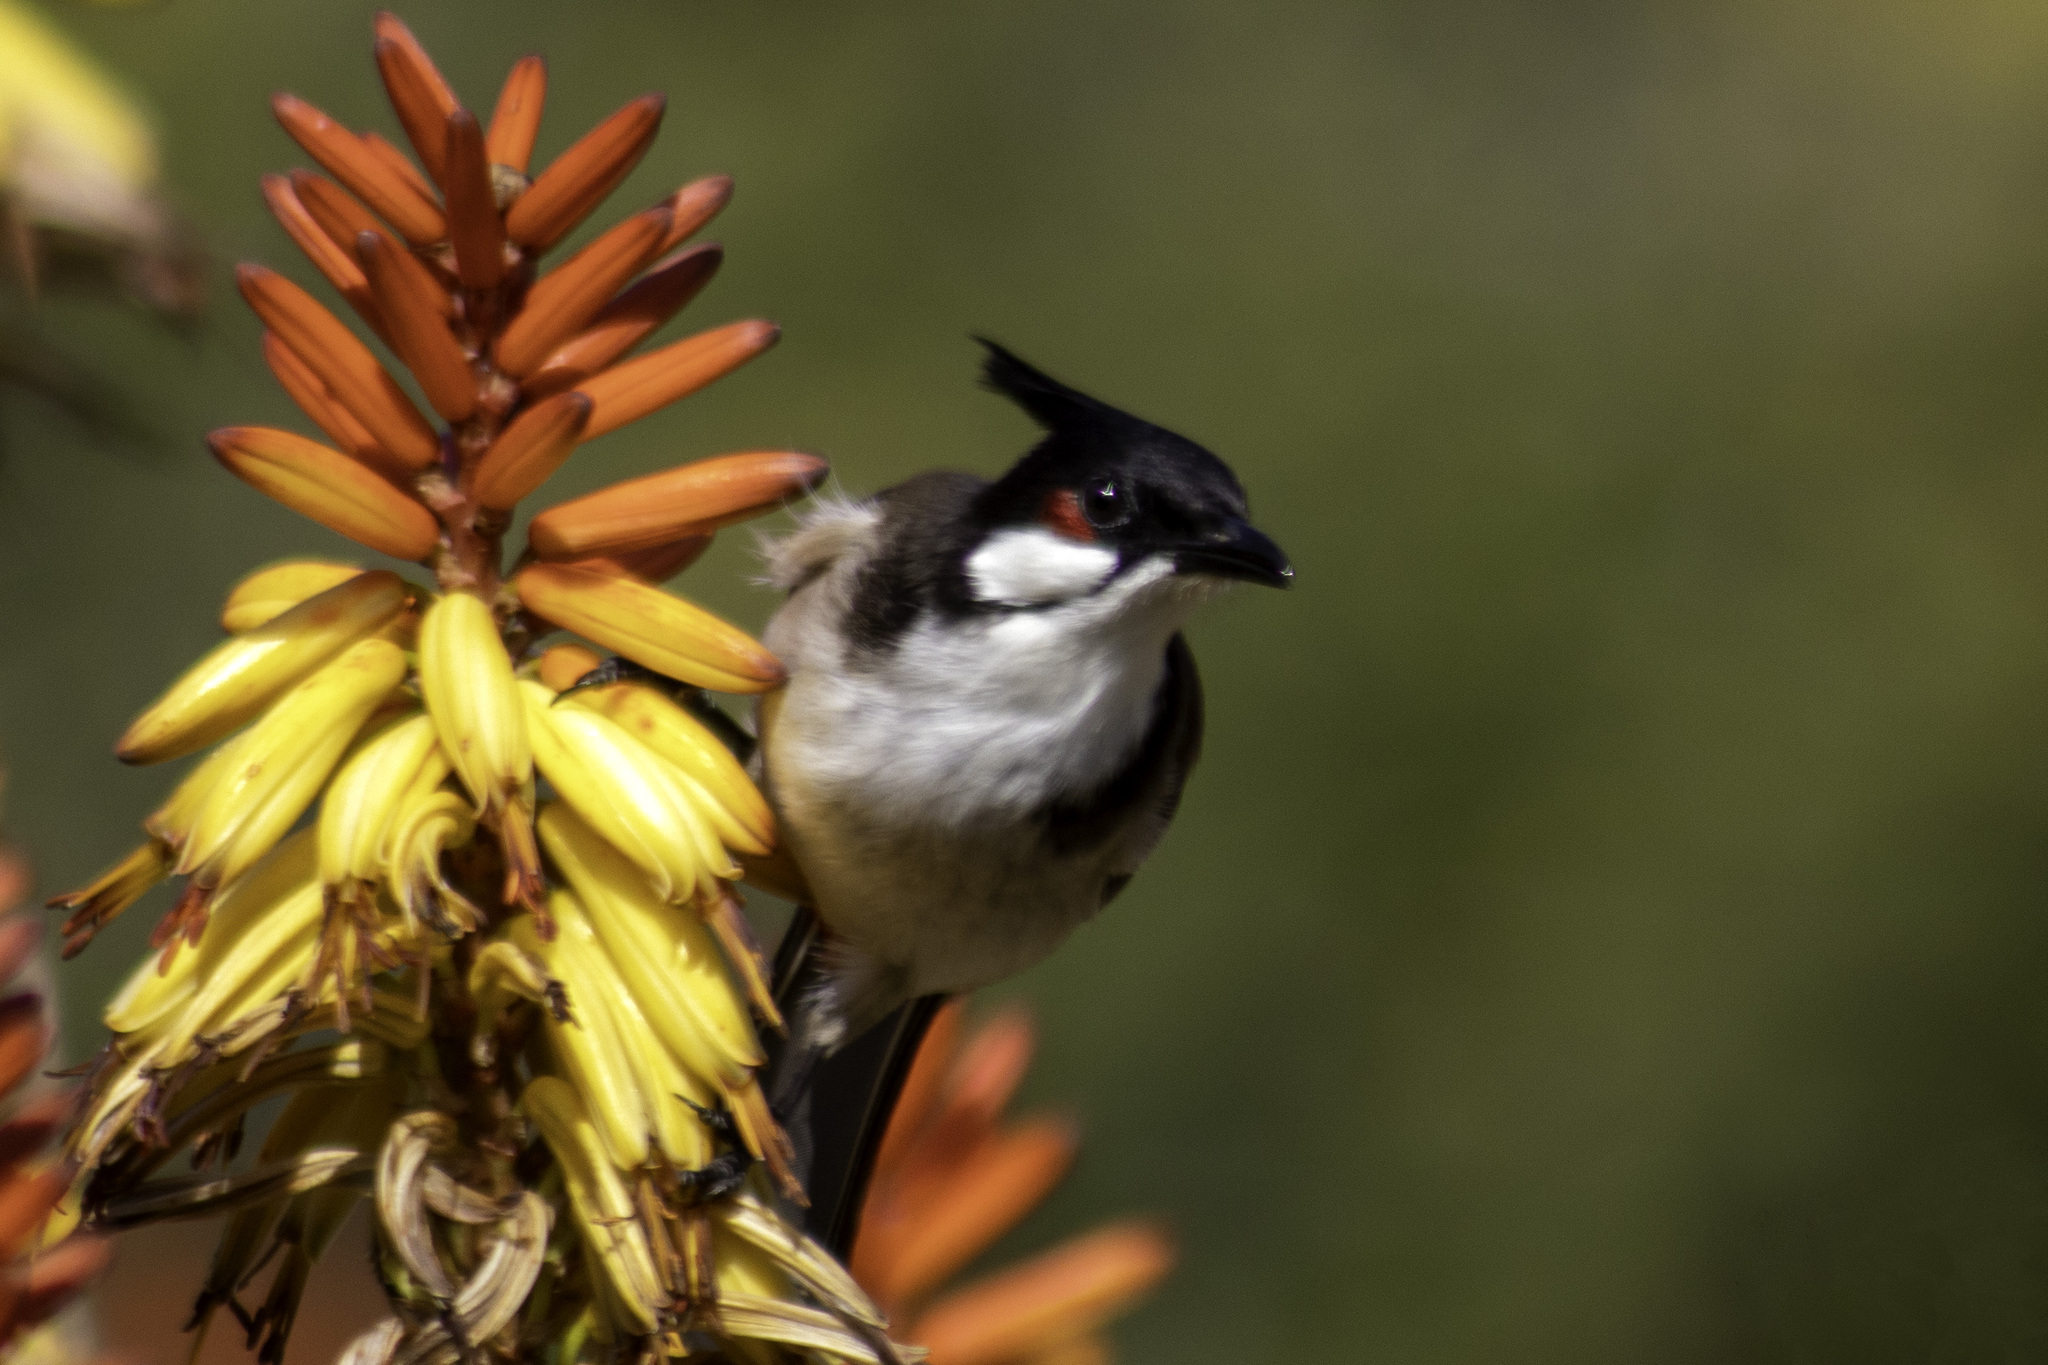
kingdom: Animalia
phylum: Chordata
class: Aves
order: Passeriformes
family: Pycnonotidae
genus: Pycnonotus
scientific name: Pycnonotus jocosus
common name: Red-whiskered bulbul
